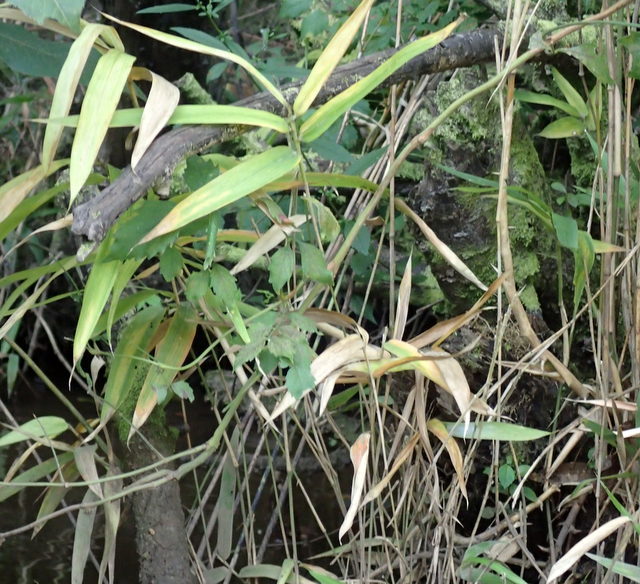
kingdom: Plantae
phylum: Tracheophyta
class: Liliopsida
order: Poales
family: Poaceae
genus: Arundinaria
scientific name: Arundinaria tecta
